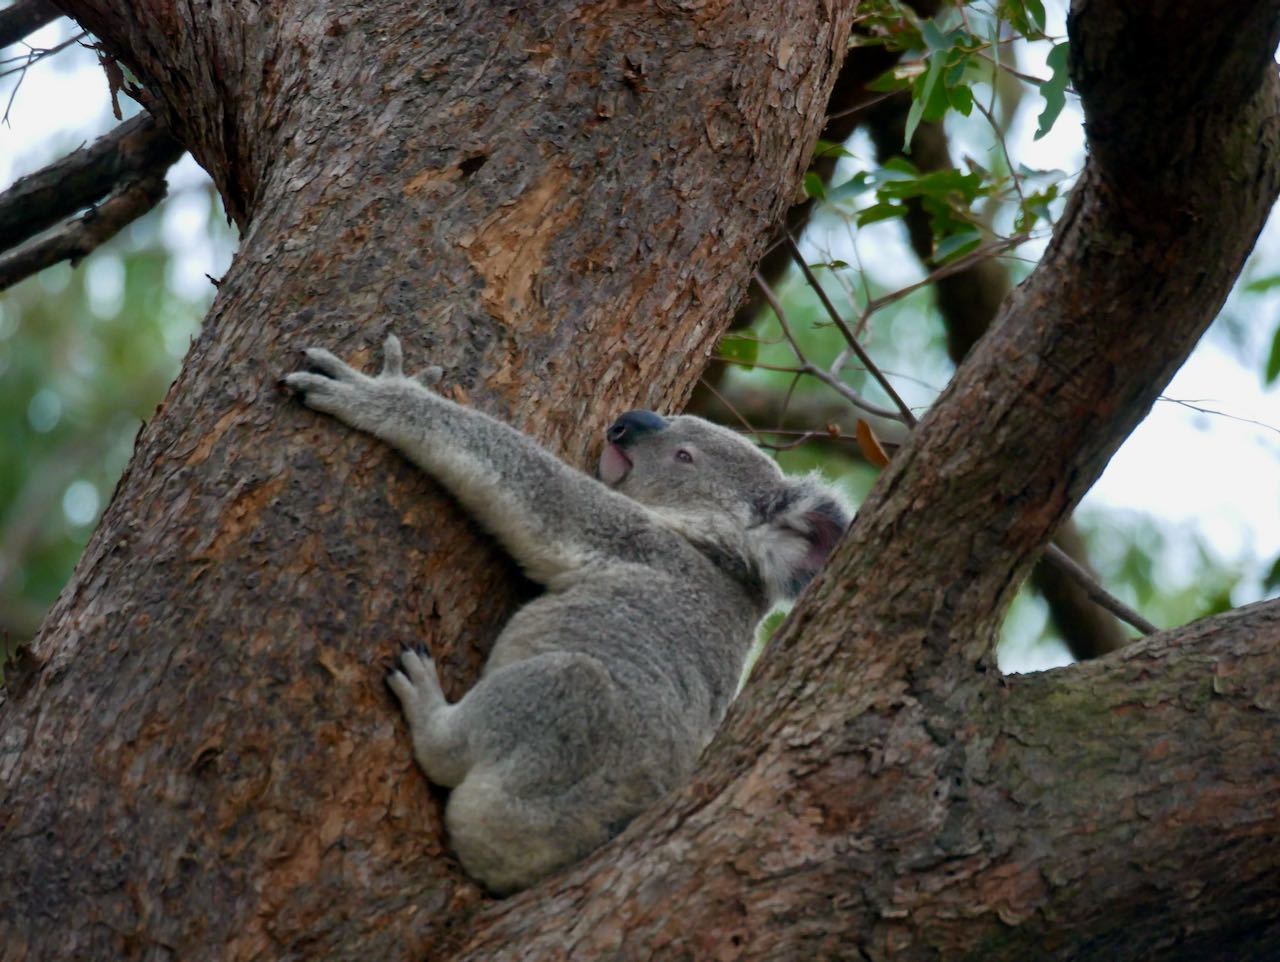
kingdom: Animalia
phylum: Chordata
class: Mammalia
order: Diprotodontia
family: Phascolarctidae
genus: Phascolarctos
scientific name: Phascolarctos cinereus
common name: Koala
